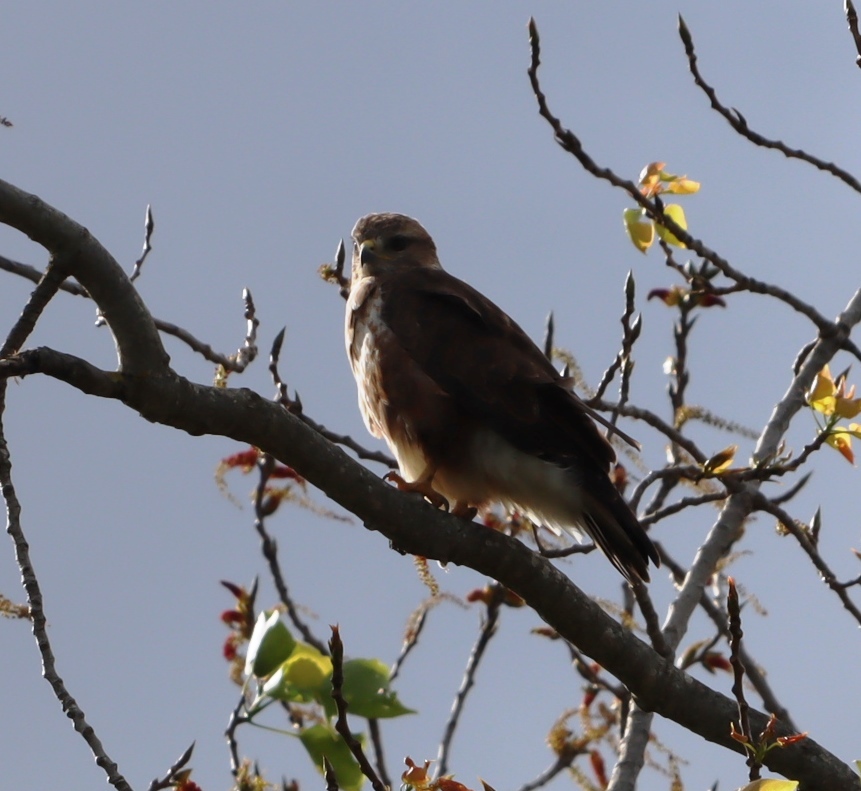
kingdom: Animalia
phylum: Chordata
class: Aves
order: Accipitriformes
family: Accipitridae
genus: Buteo
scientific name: Buteo trizonatus
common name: Forest buzzard
